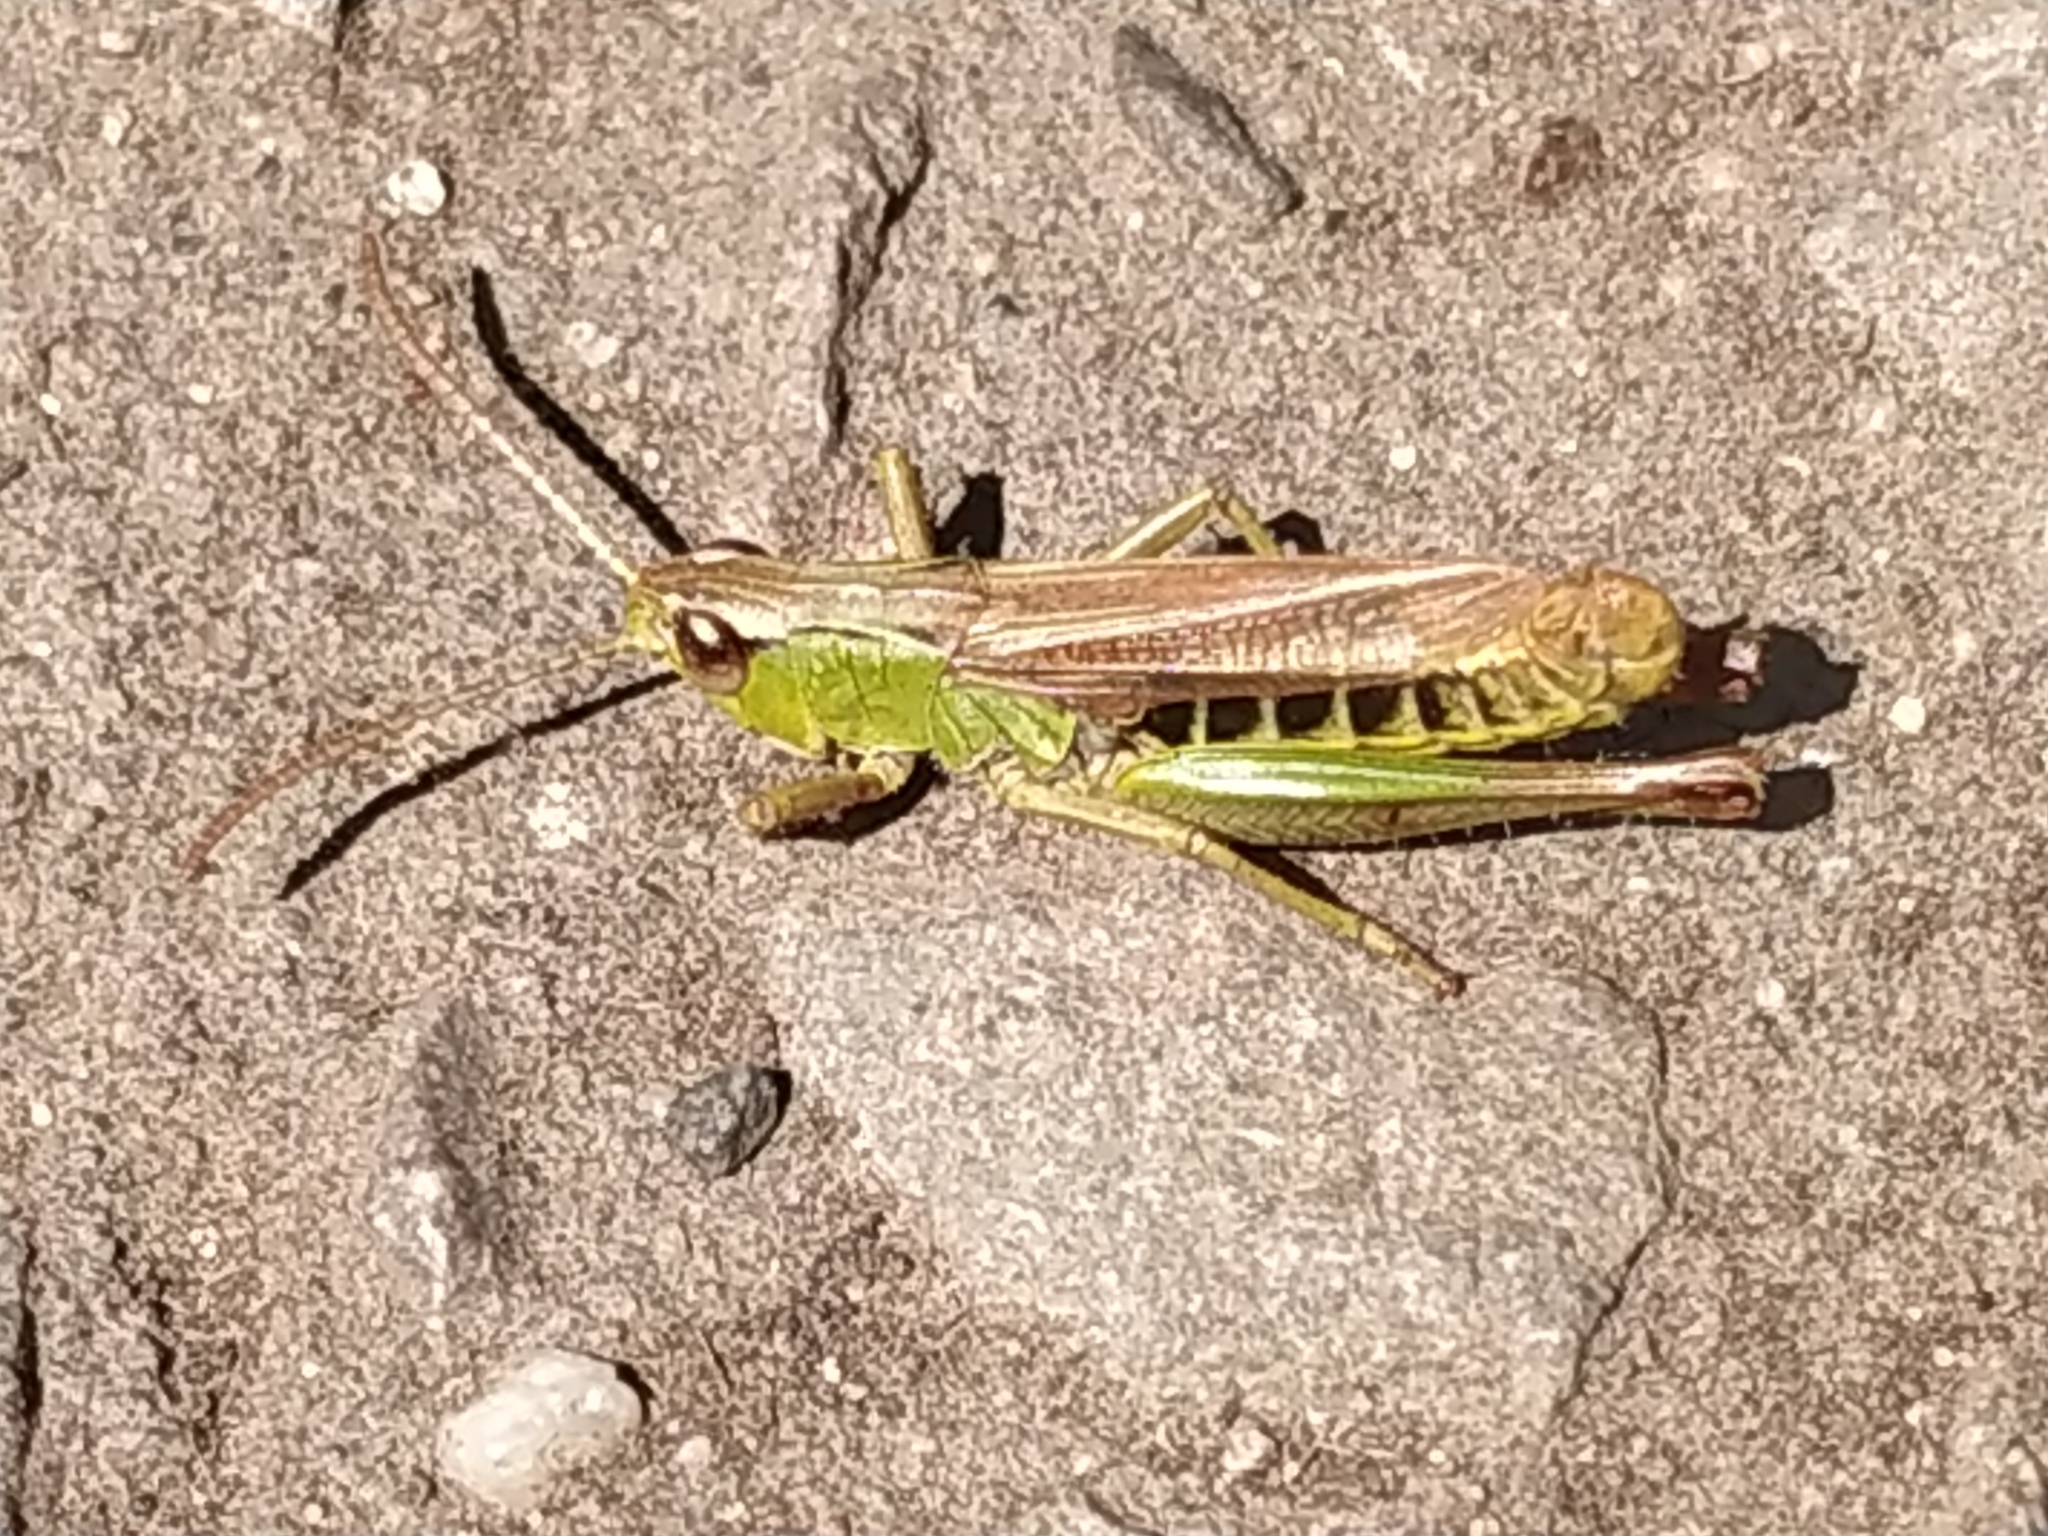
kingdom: Animalia
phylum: Arthropoda
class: Insecta
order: Orthoptera
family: Acrididae
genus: Pseudochorthippus
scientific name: Pseudochorthippus parallelus
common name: Meadow grasshopper
